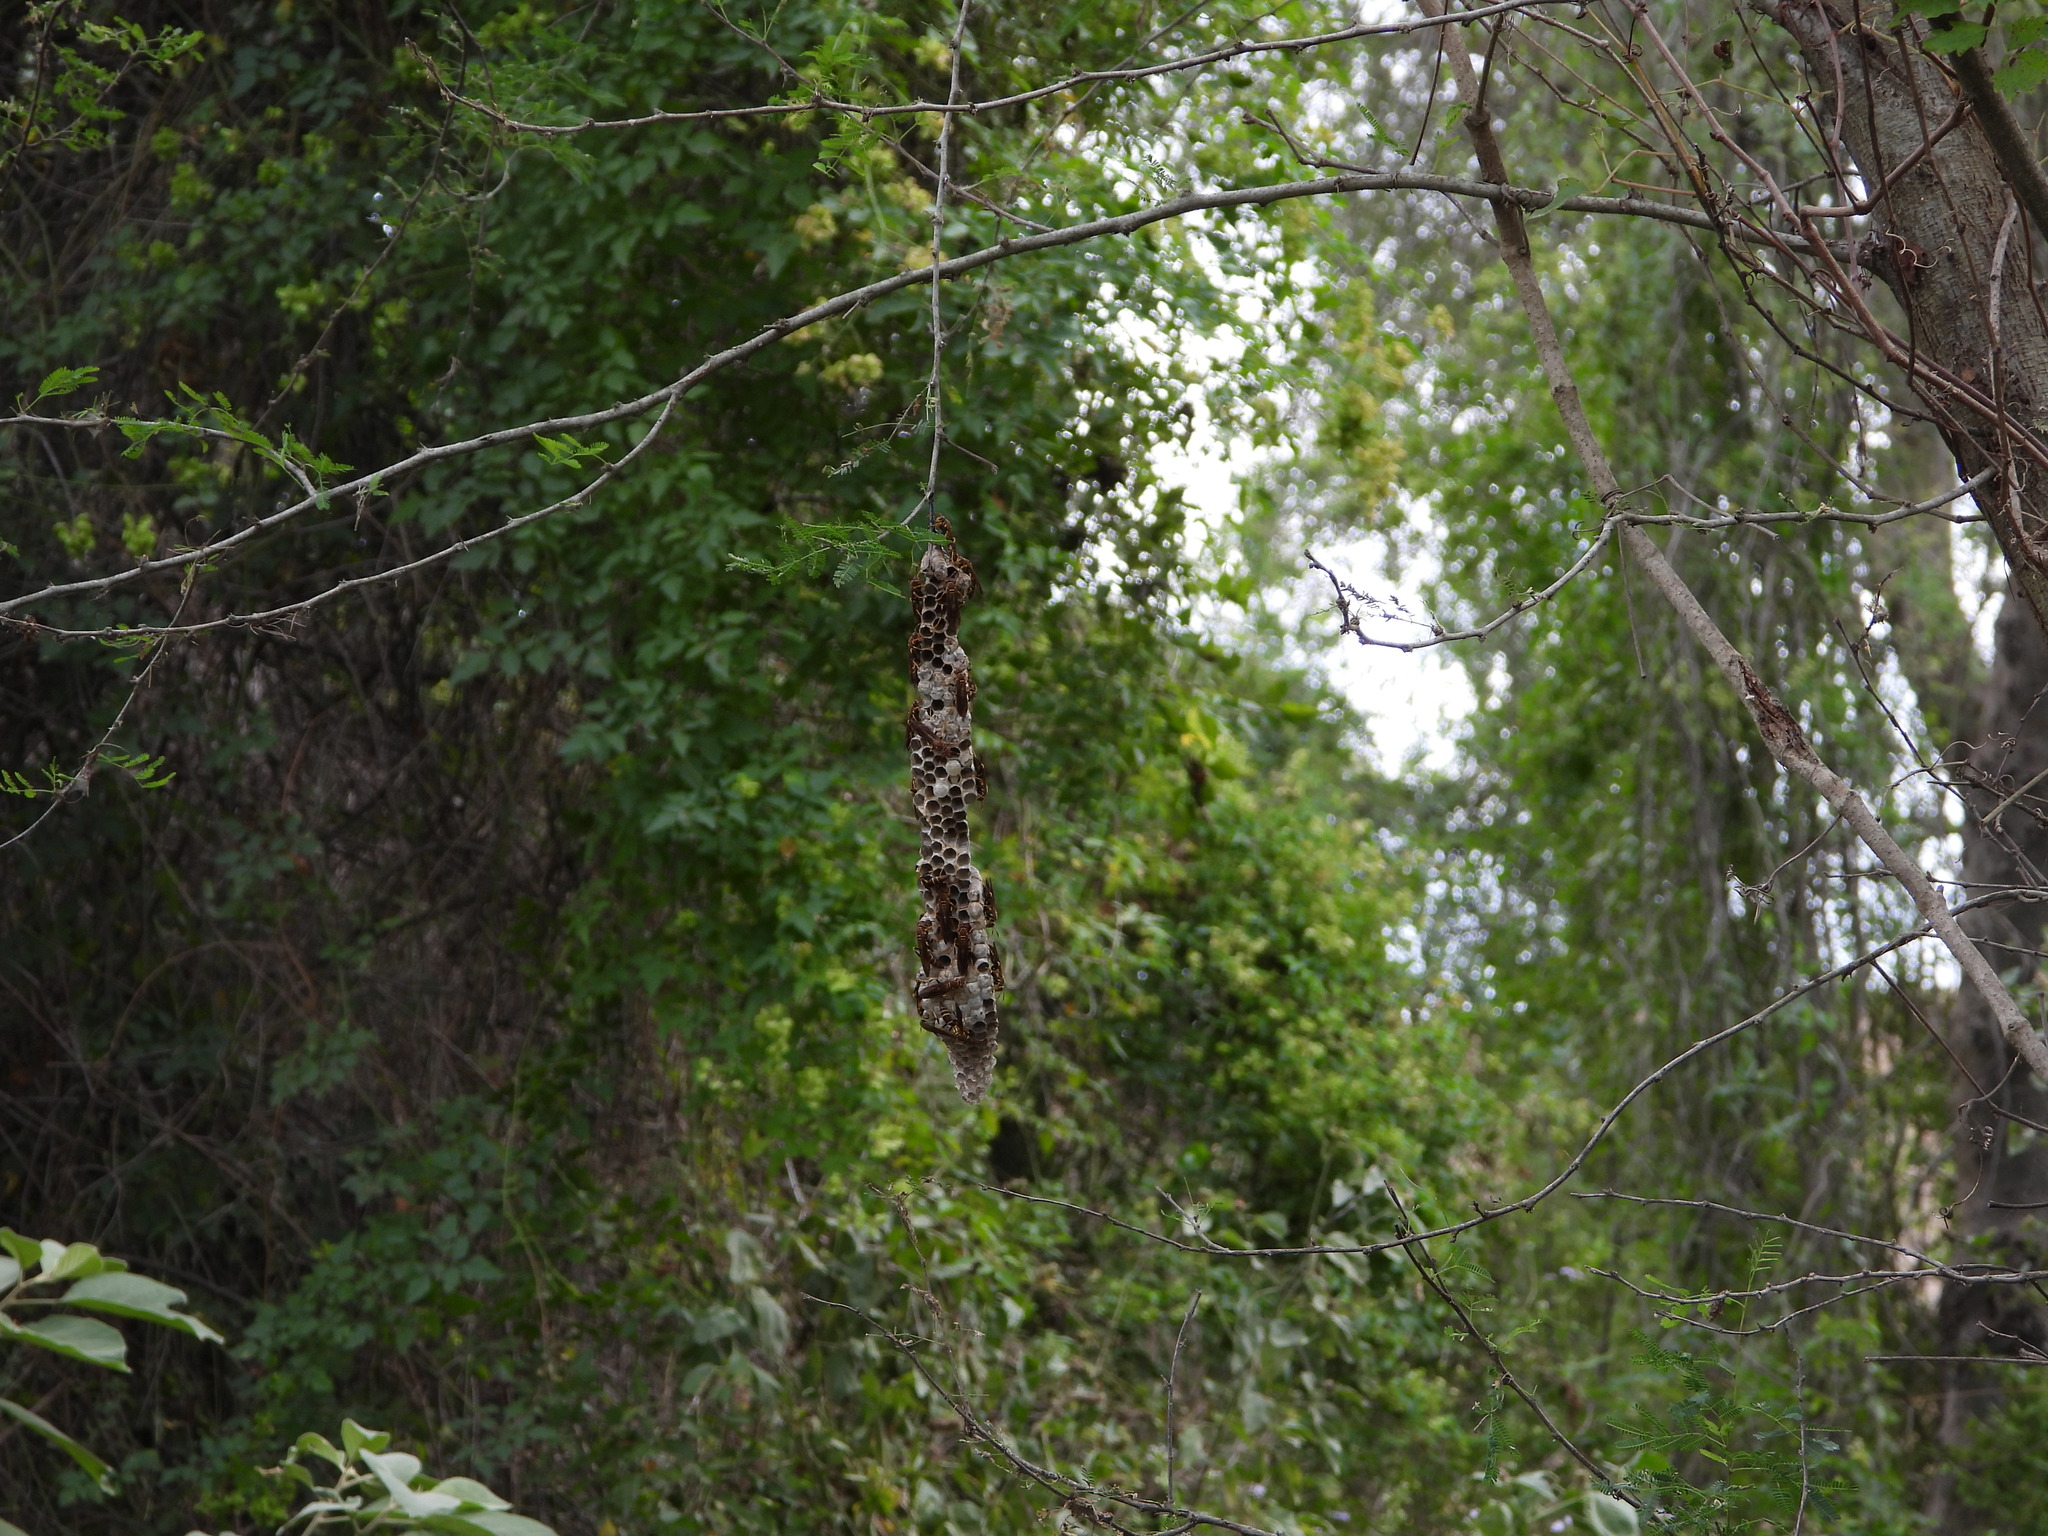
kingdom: Animalia
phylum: Arthropoda
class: Insecta
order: Hymenoptera
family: Eumenidae
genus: Polistes
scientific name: Polistes instabilis
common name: Unstable paper wasp
